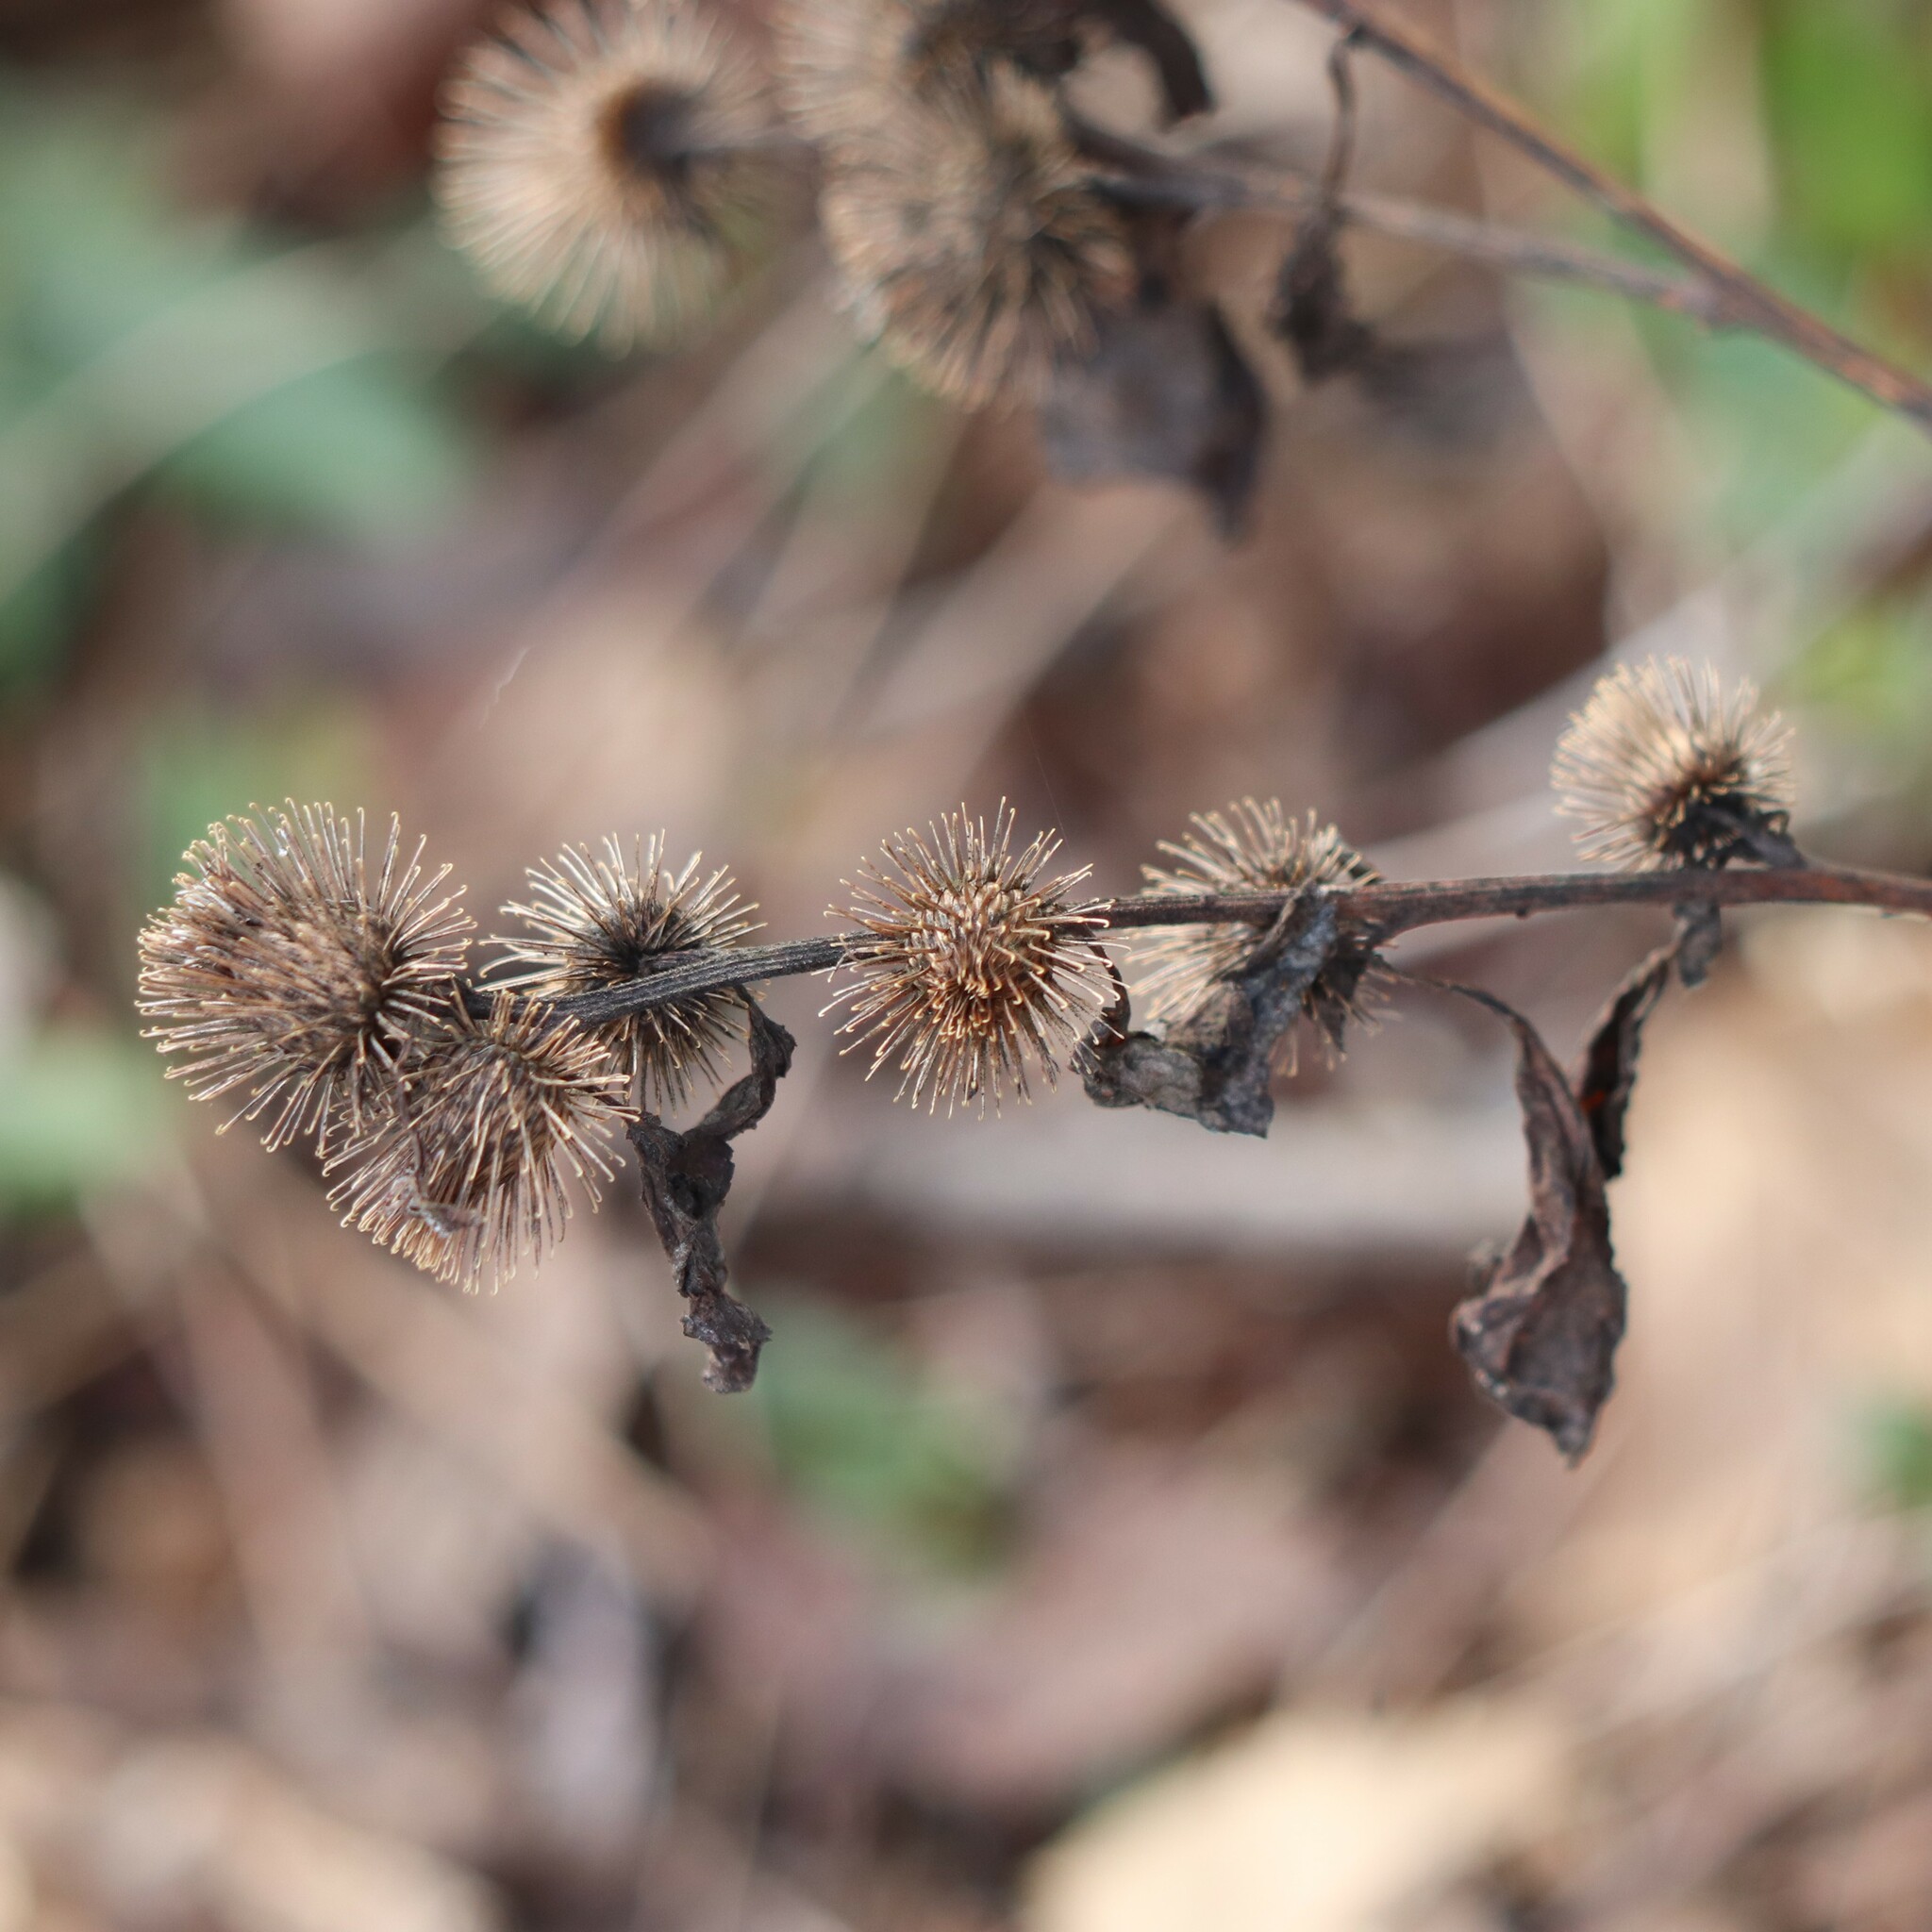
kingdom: Plantae
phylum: Tracheophyta
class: Magnoliopsida
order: Asterales
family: Asteraceae
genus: Arctium
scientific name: Arctium minus
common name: Lesser burdock
